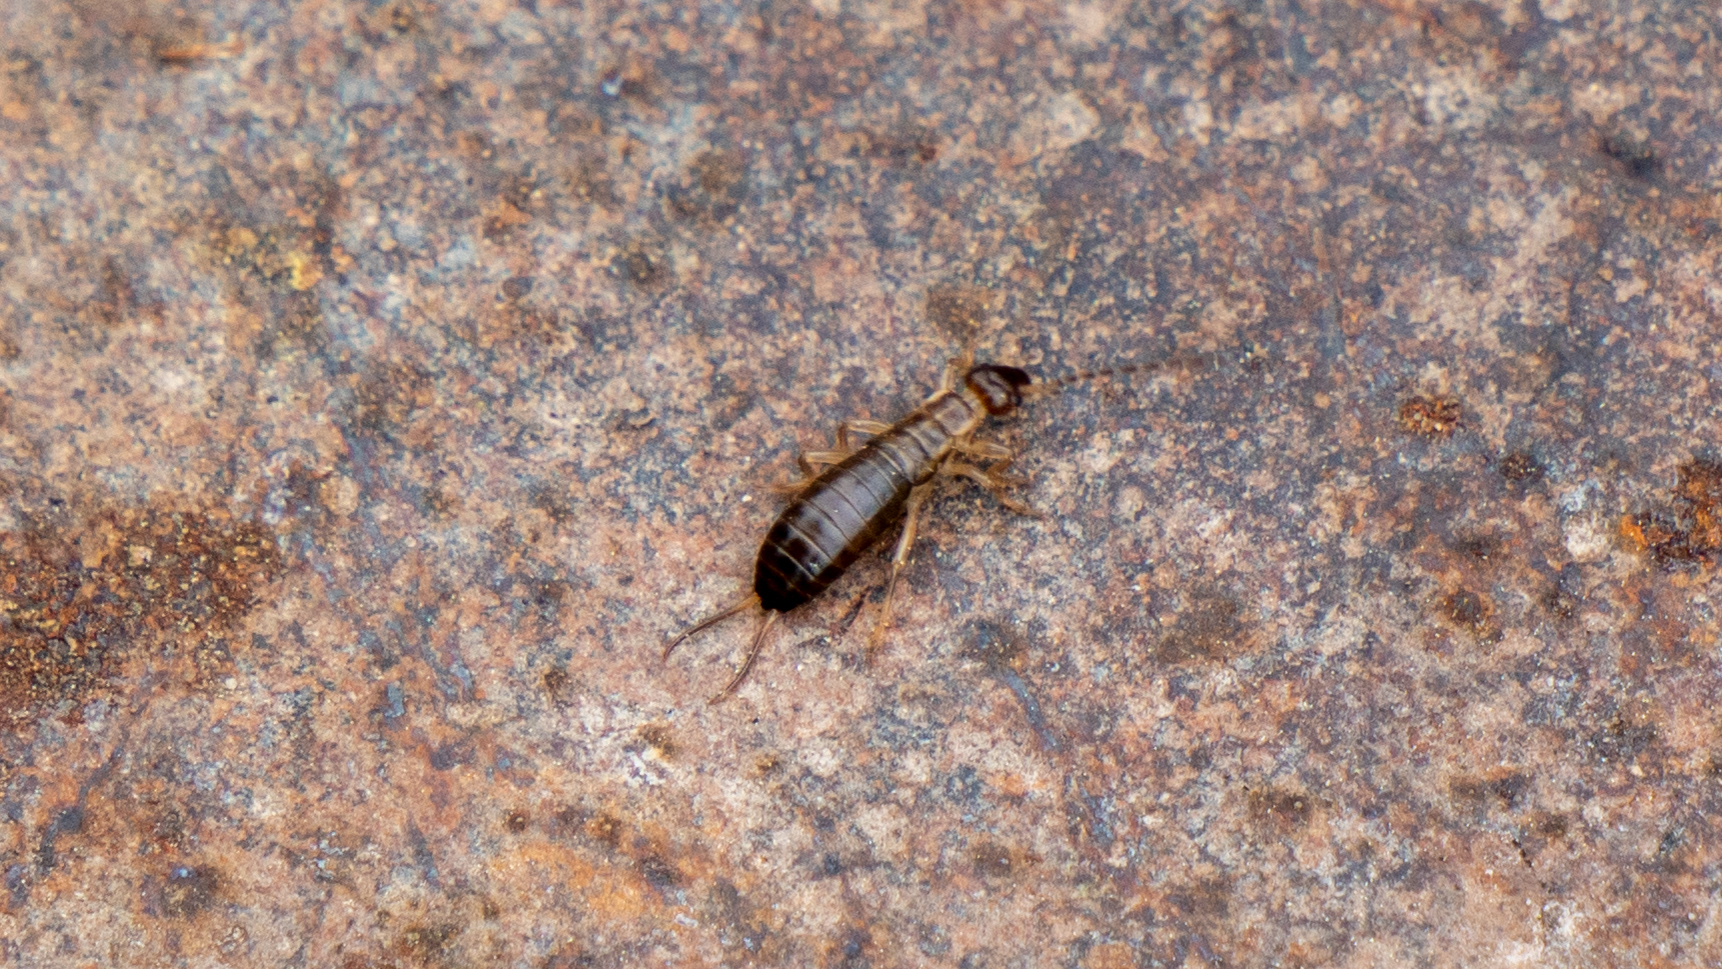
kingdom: Animalia
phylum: Arthropoda
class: Insecta
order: Dermaptera
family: Forficulidae
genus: Forficula
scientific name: Forficula
